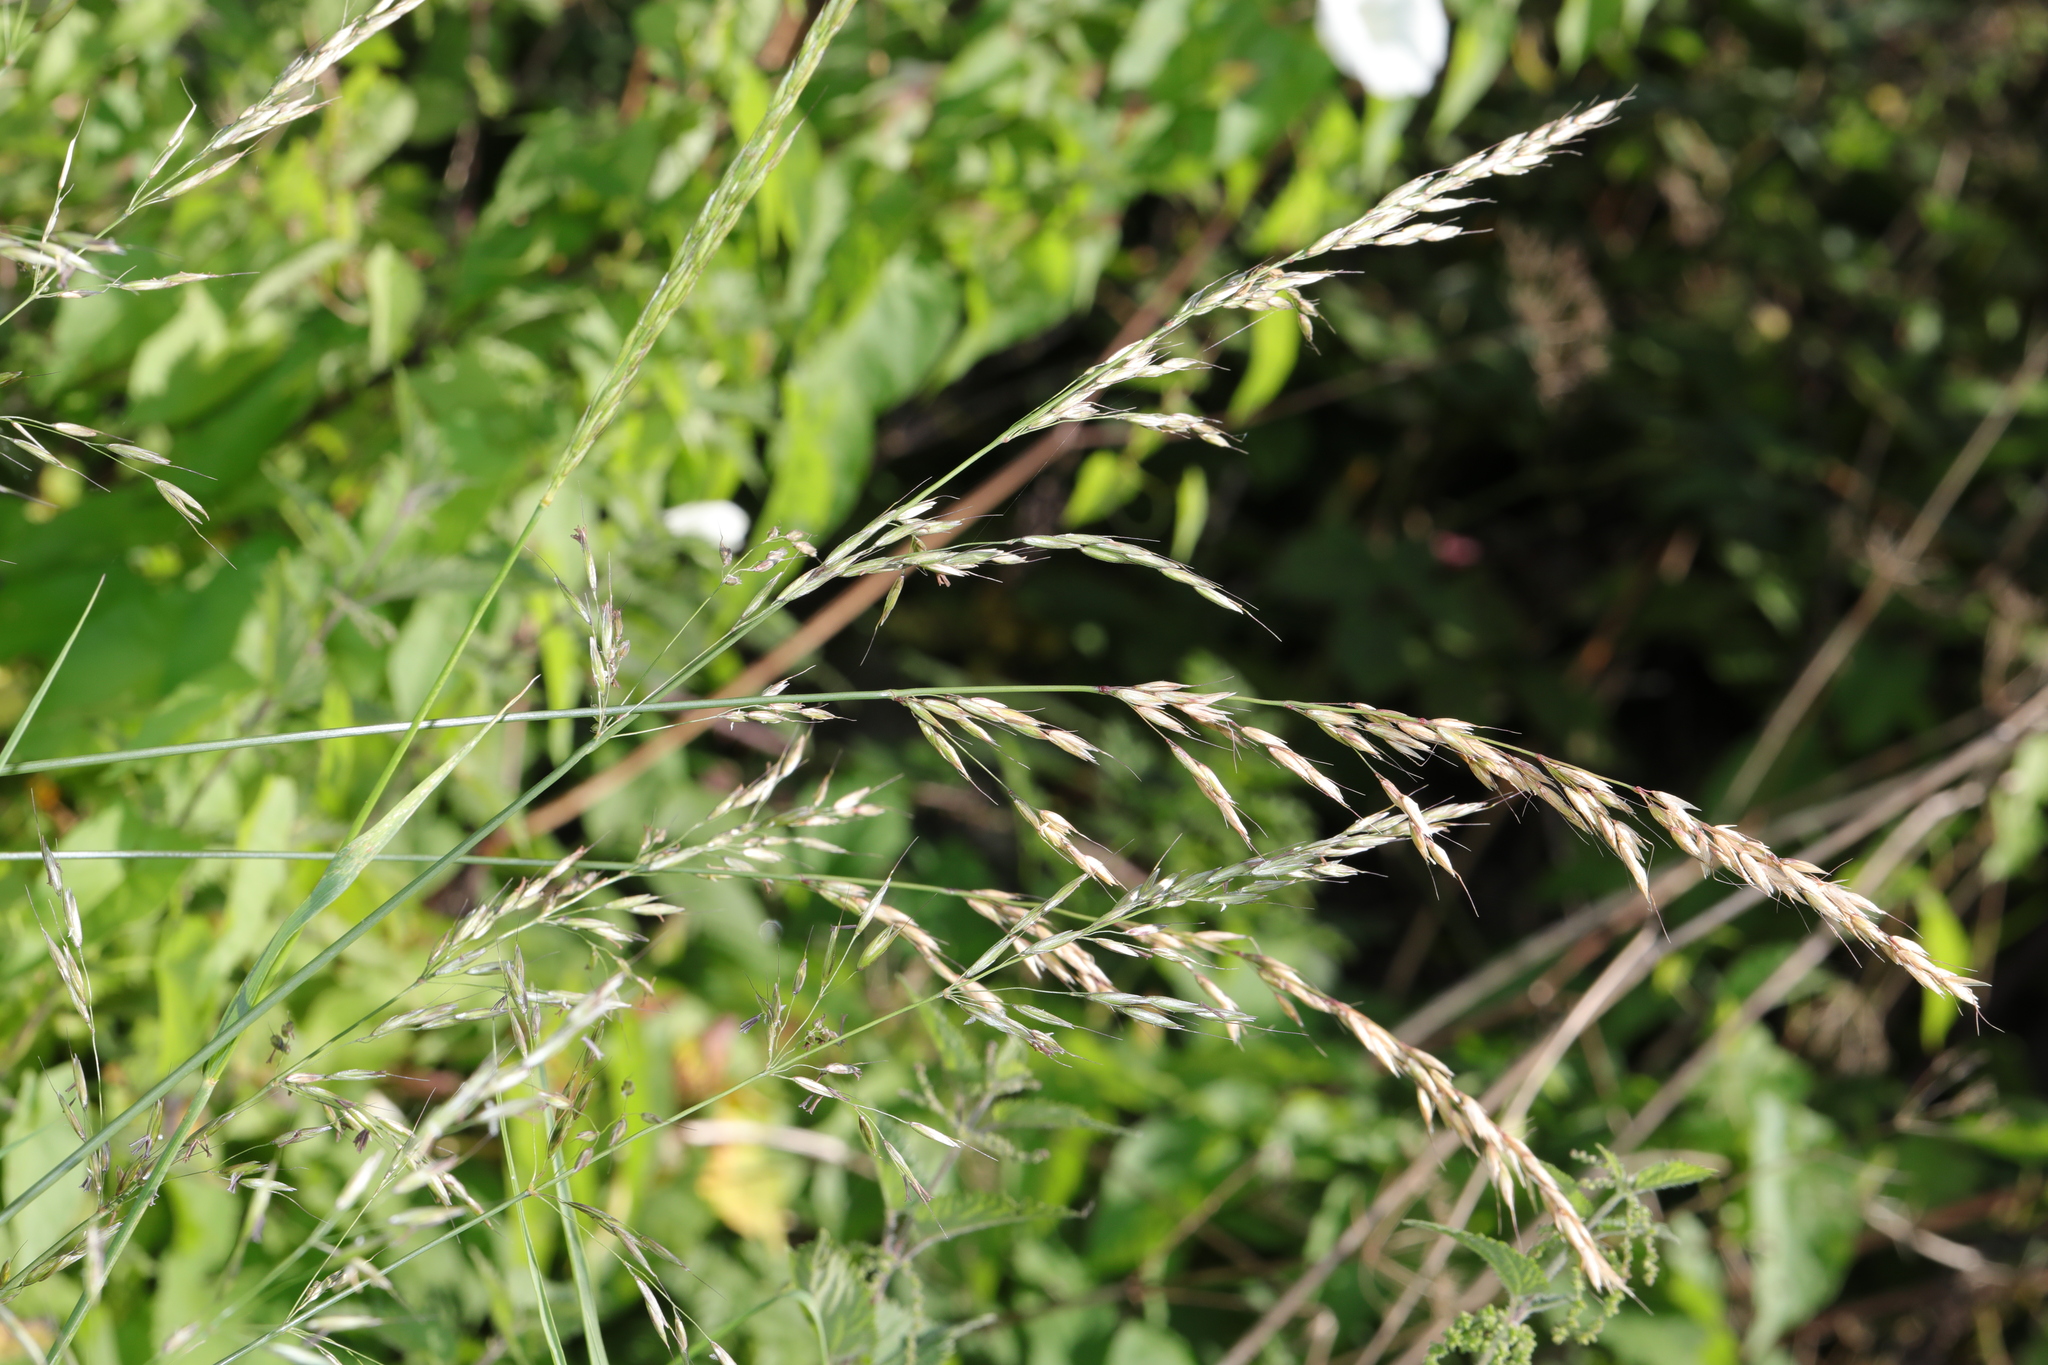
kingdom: Plantae
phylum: Tracheophyta
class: Liliopsida
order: Poales
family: Poaceae
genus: Arrhenatherum
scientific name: Arrhenatherum elatius
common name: Tall oatgrass
